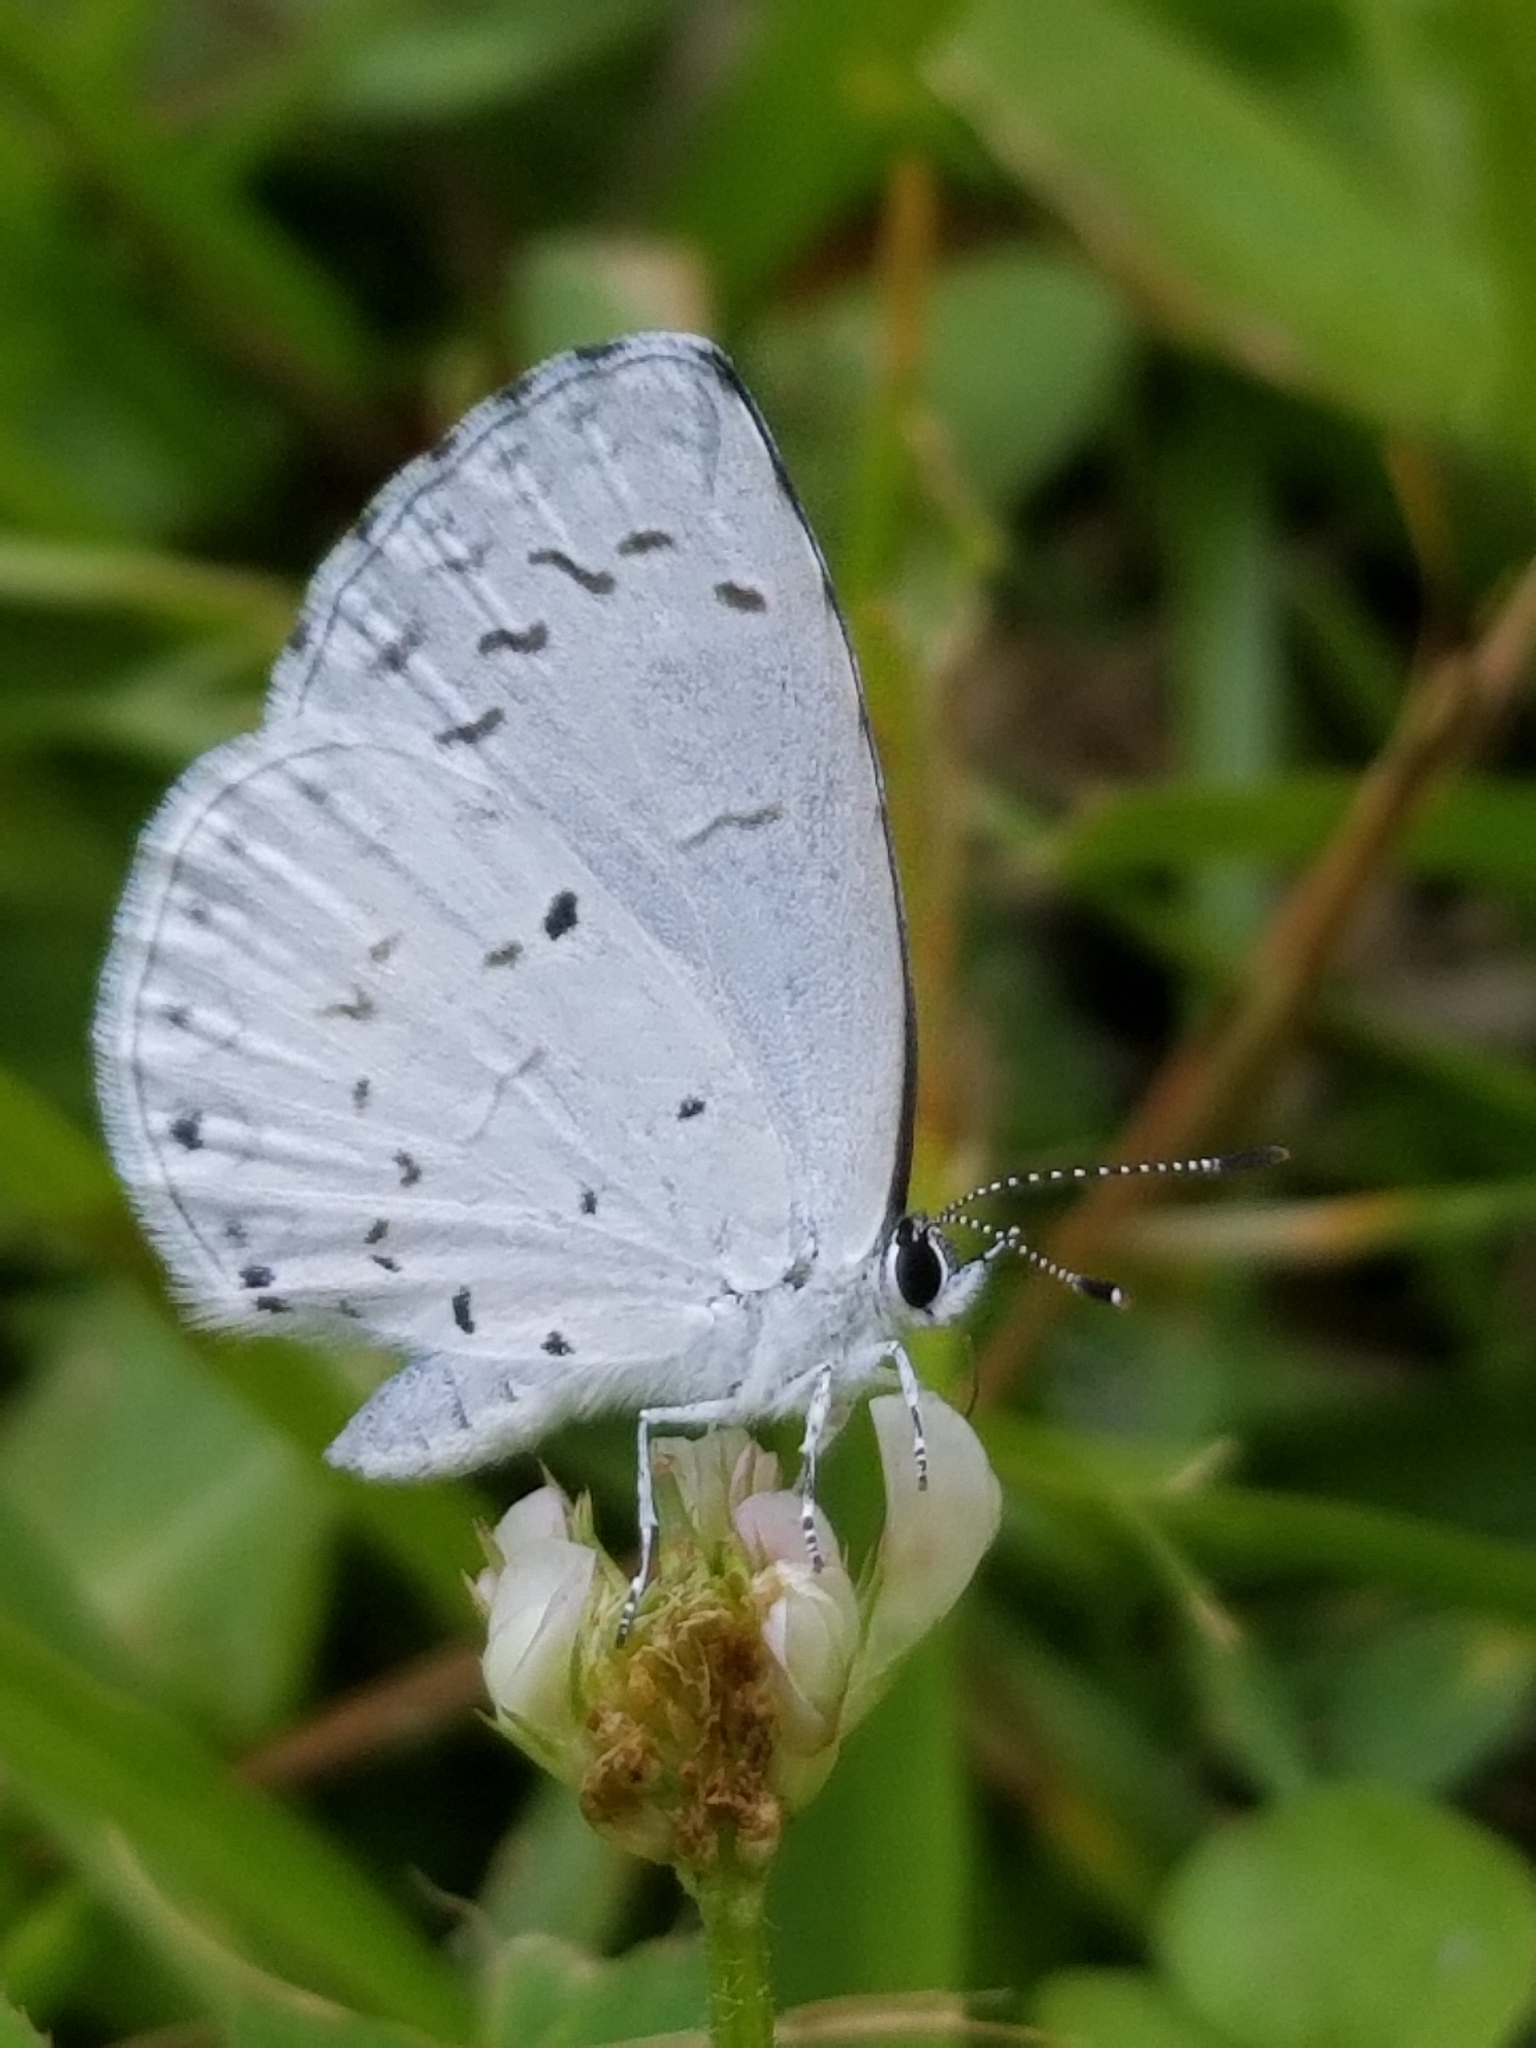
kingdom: Animalia
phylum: Arthropoda
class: Insecta
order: Lepidoptera
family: Lycaenidae
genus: Cyaniris
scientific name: Cyaniris neglecta
